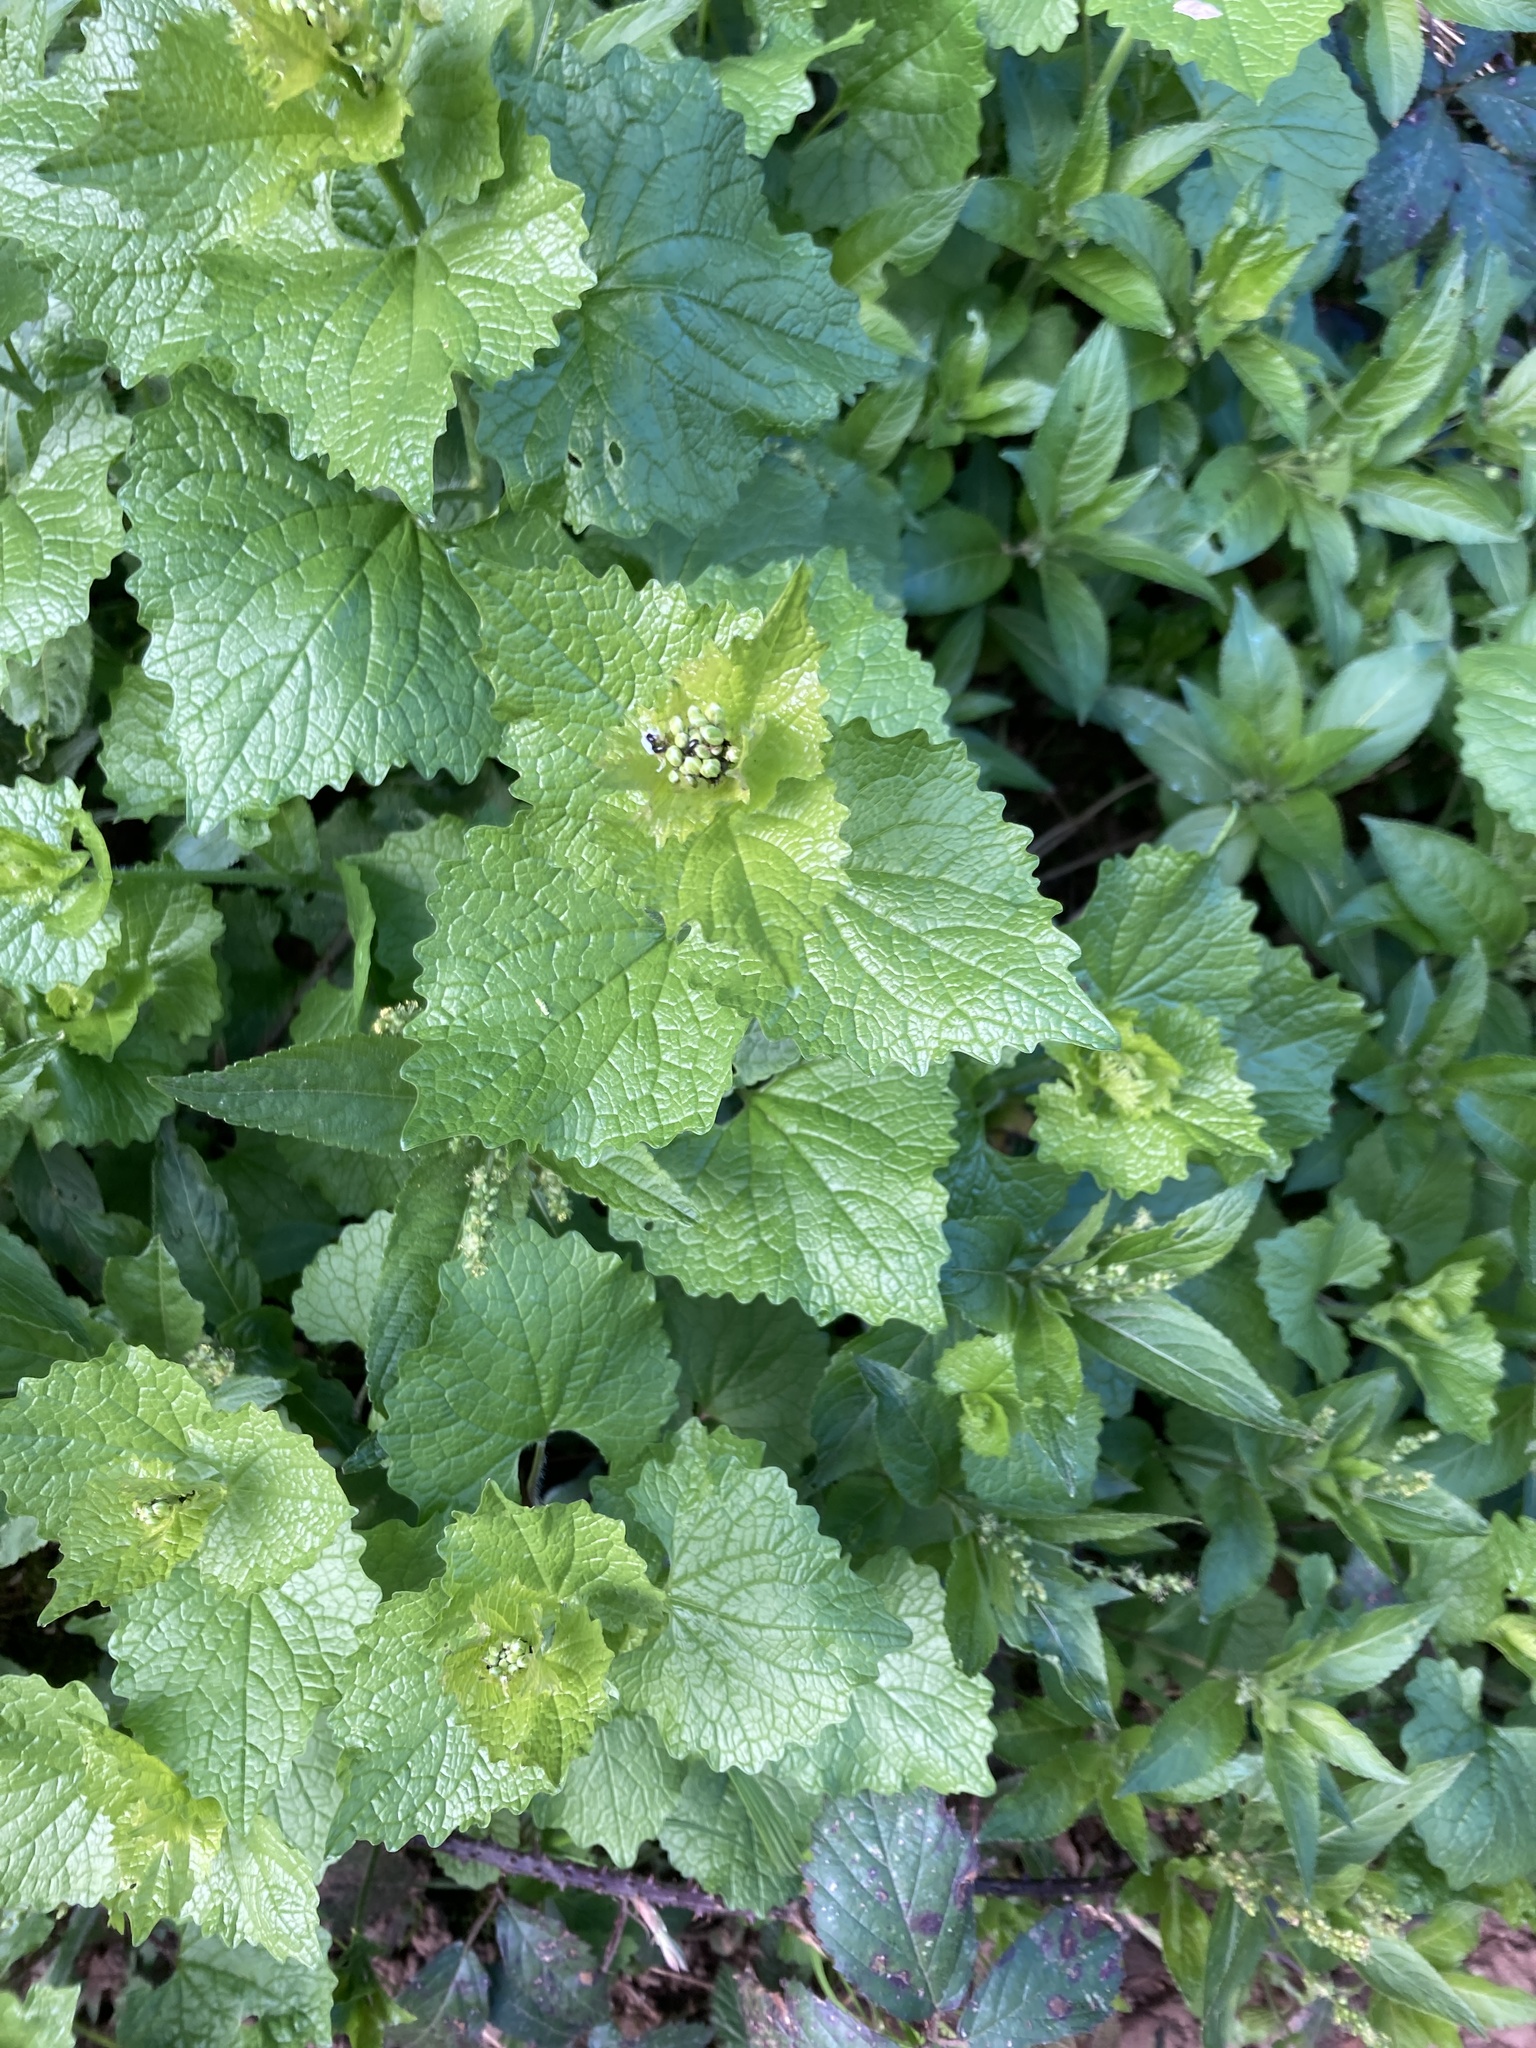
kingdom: Plantae
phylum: Tracheophyta
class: Magnoliopsida
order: Brassicales
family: Brassicaceae
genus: Alliaria
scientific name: Alliaria petiolata
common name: Garlic mustard
